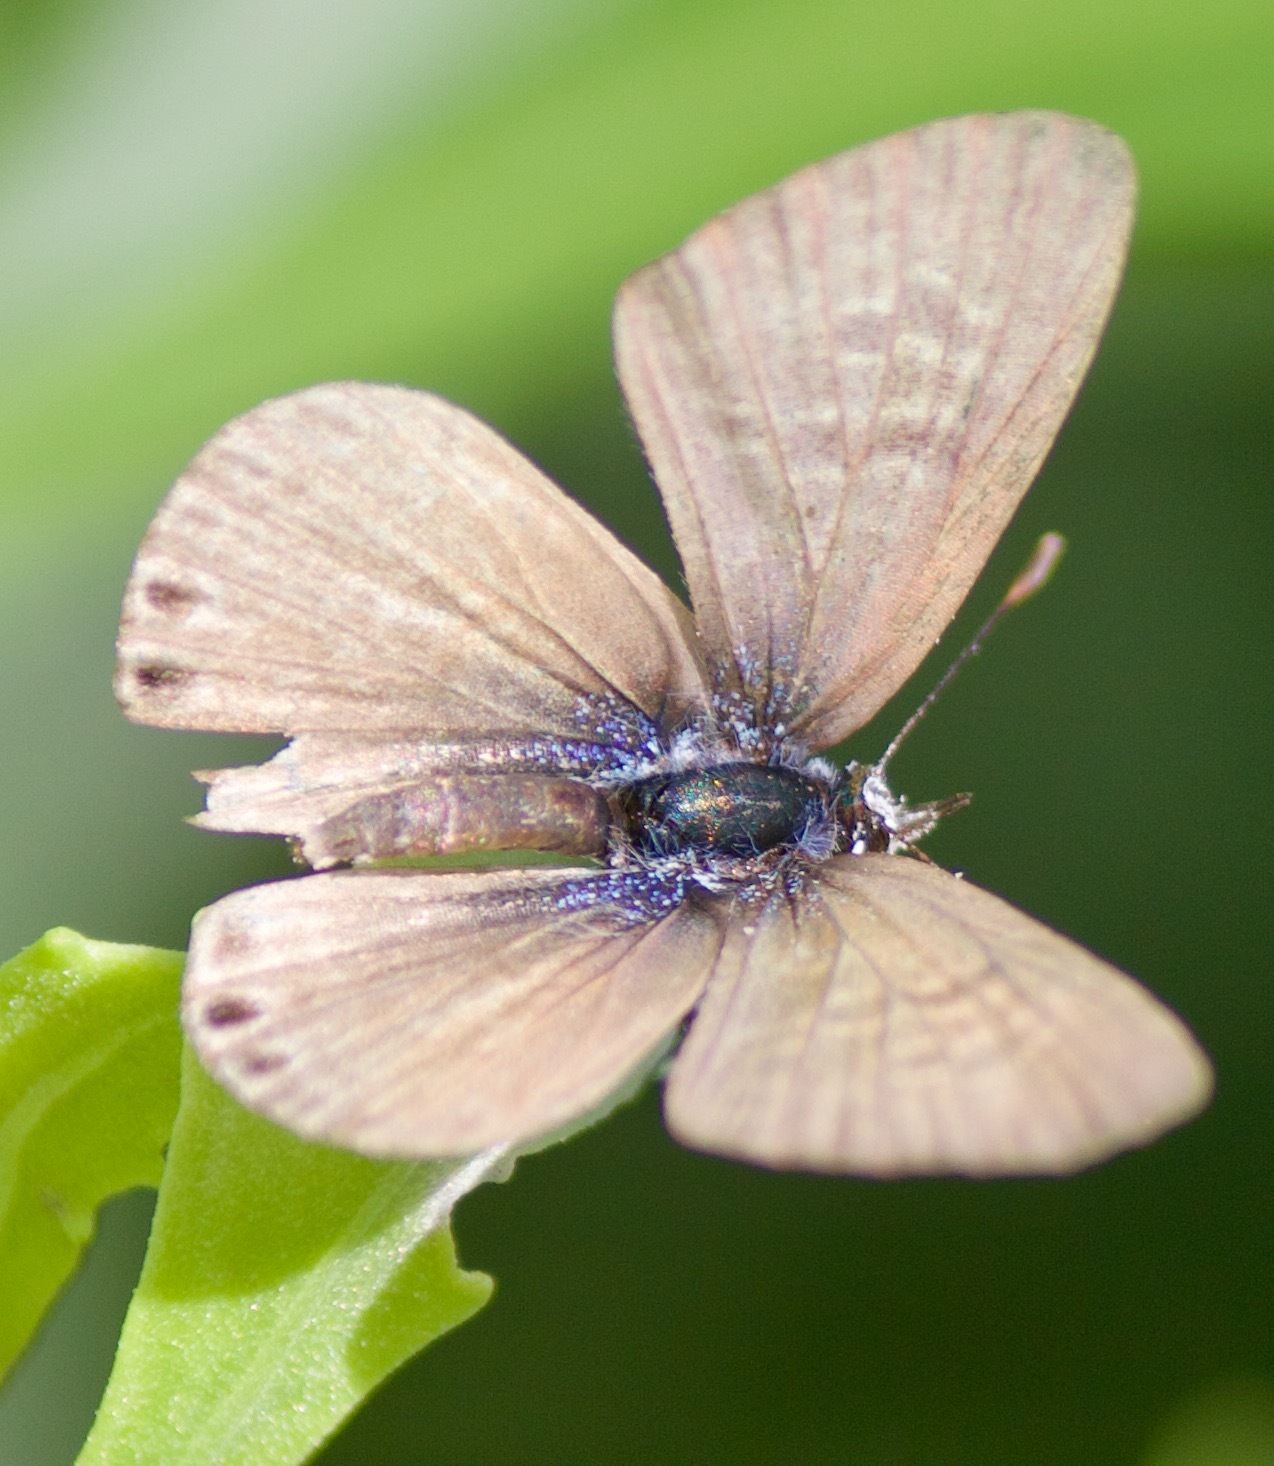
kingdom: Animalia
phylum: Arthropoda
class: Insecta
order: Lepidoptera
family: Lycaenidae
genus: Leptotes
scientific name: Leptotes trigemmatus
